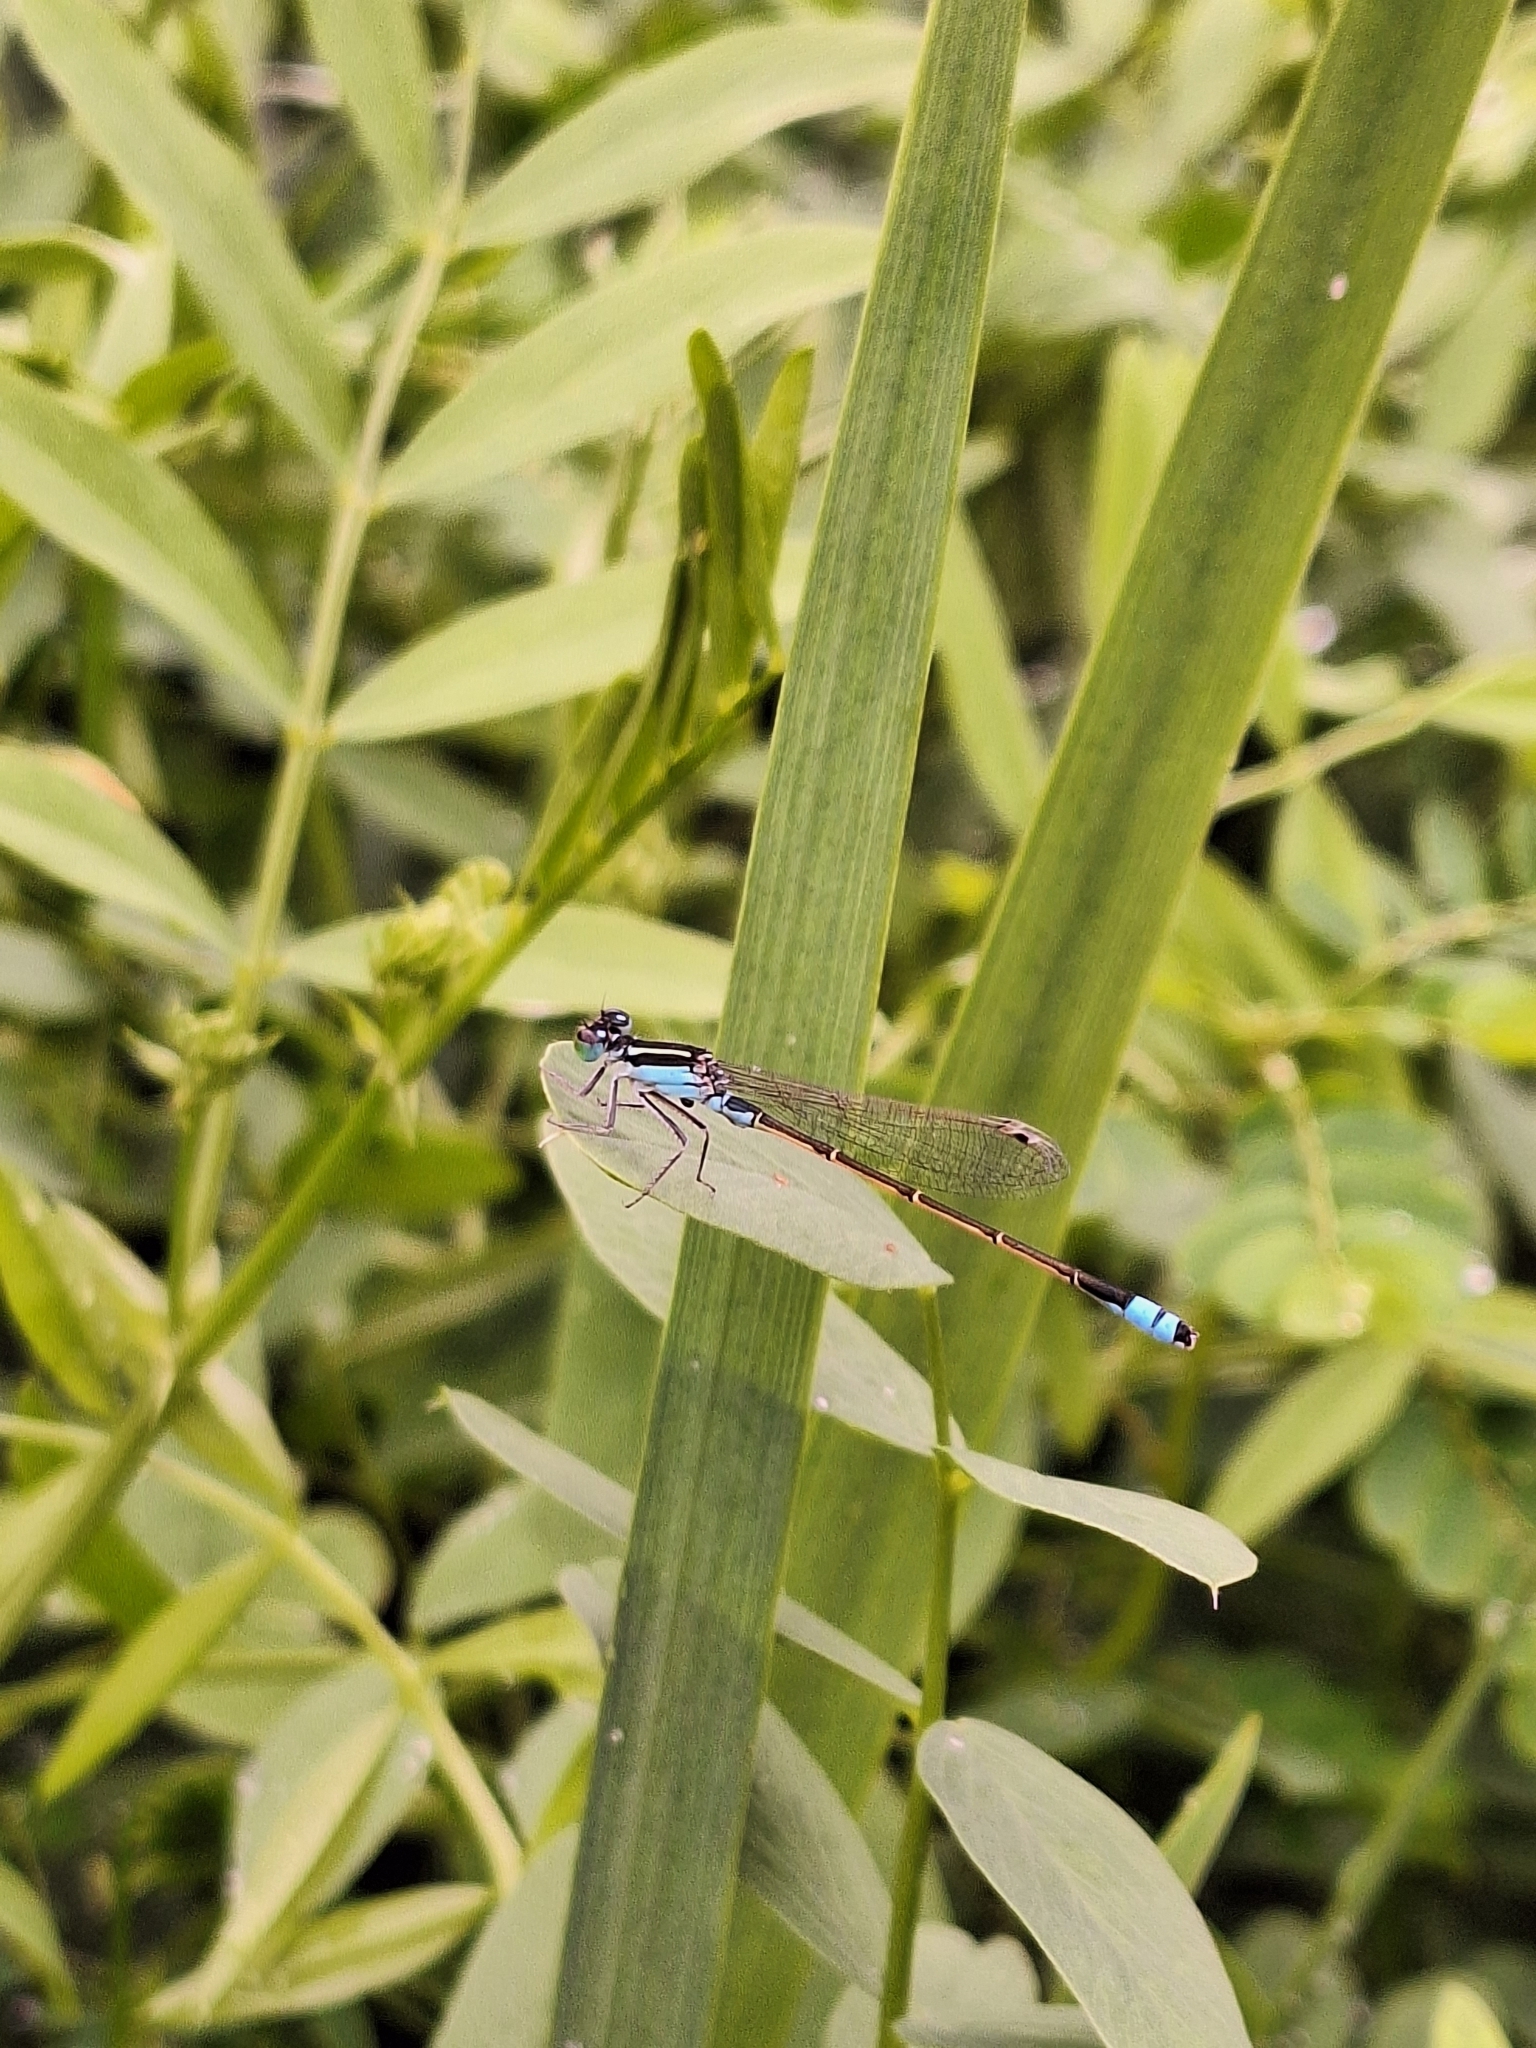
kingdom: Animalia
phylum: Arthropoda
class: Insecta
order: Odonata
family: Coenagrionidae
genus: Ischnura
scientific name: Ischnura fluviatilis
